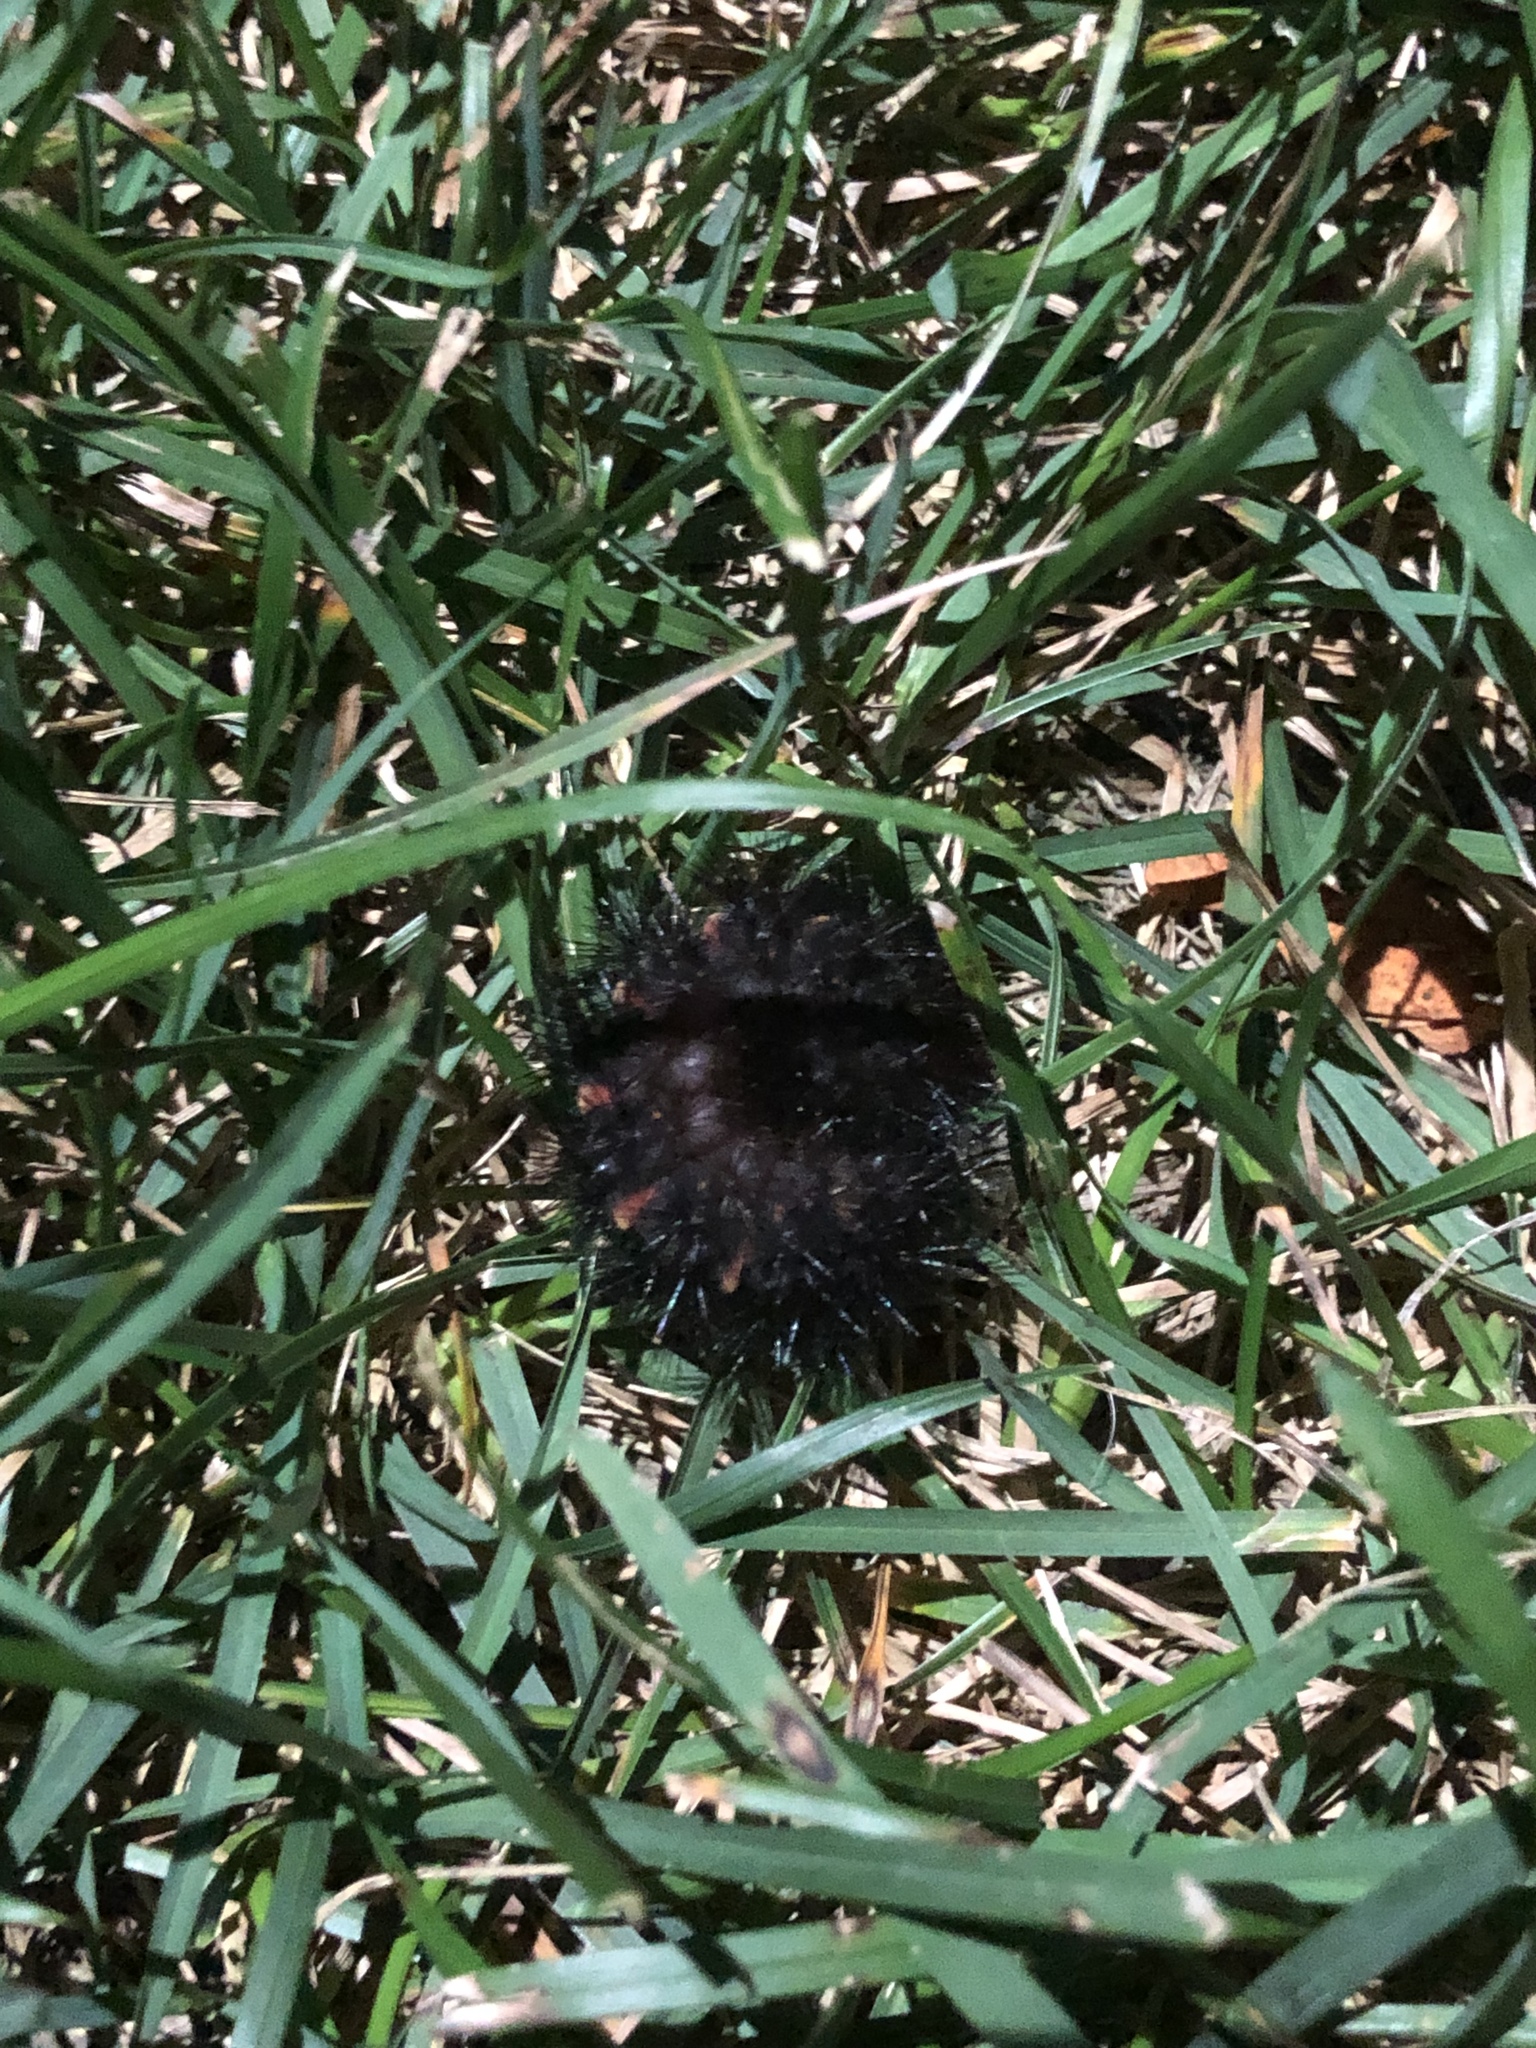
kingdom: Animalia
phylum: Arthropoda
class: Insecta
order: Lepidoptera
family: Erebidae
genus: Hypercompe
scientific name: Hypercompe scribonia
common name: Giant leopard moth
